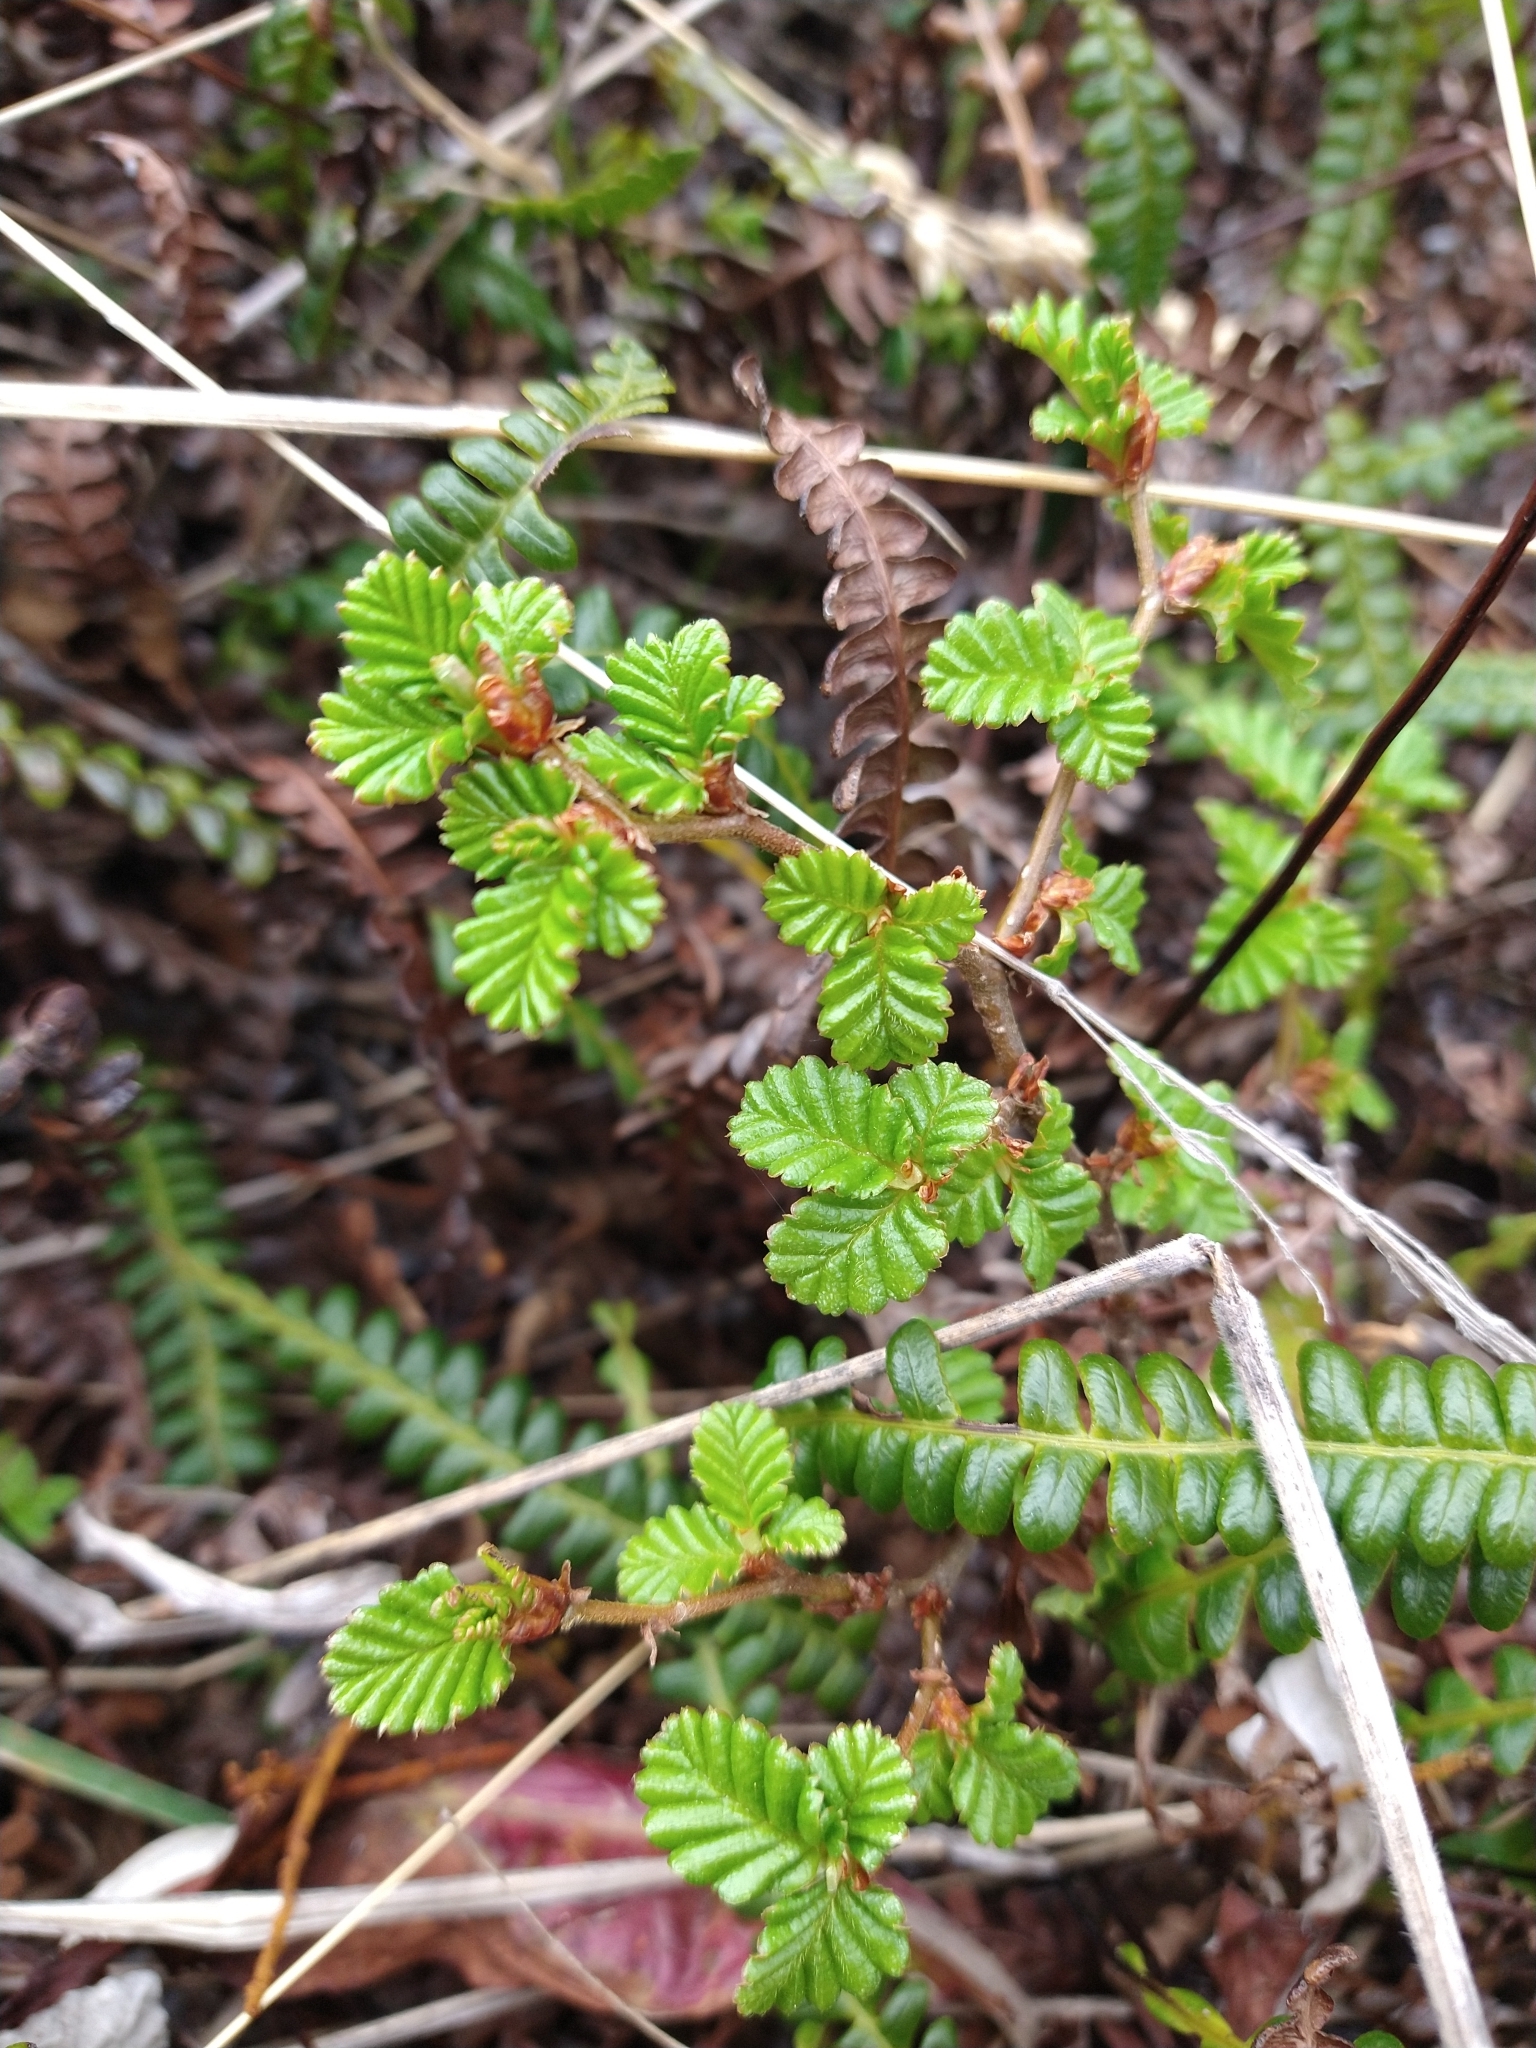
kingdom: Plantae
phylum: Tracheophyta
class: Magnoliopsida
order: Fagales
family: Nothofagaceae
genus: Nothofagus
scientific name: Nothofagus pumilio
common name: Lenga beech
